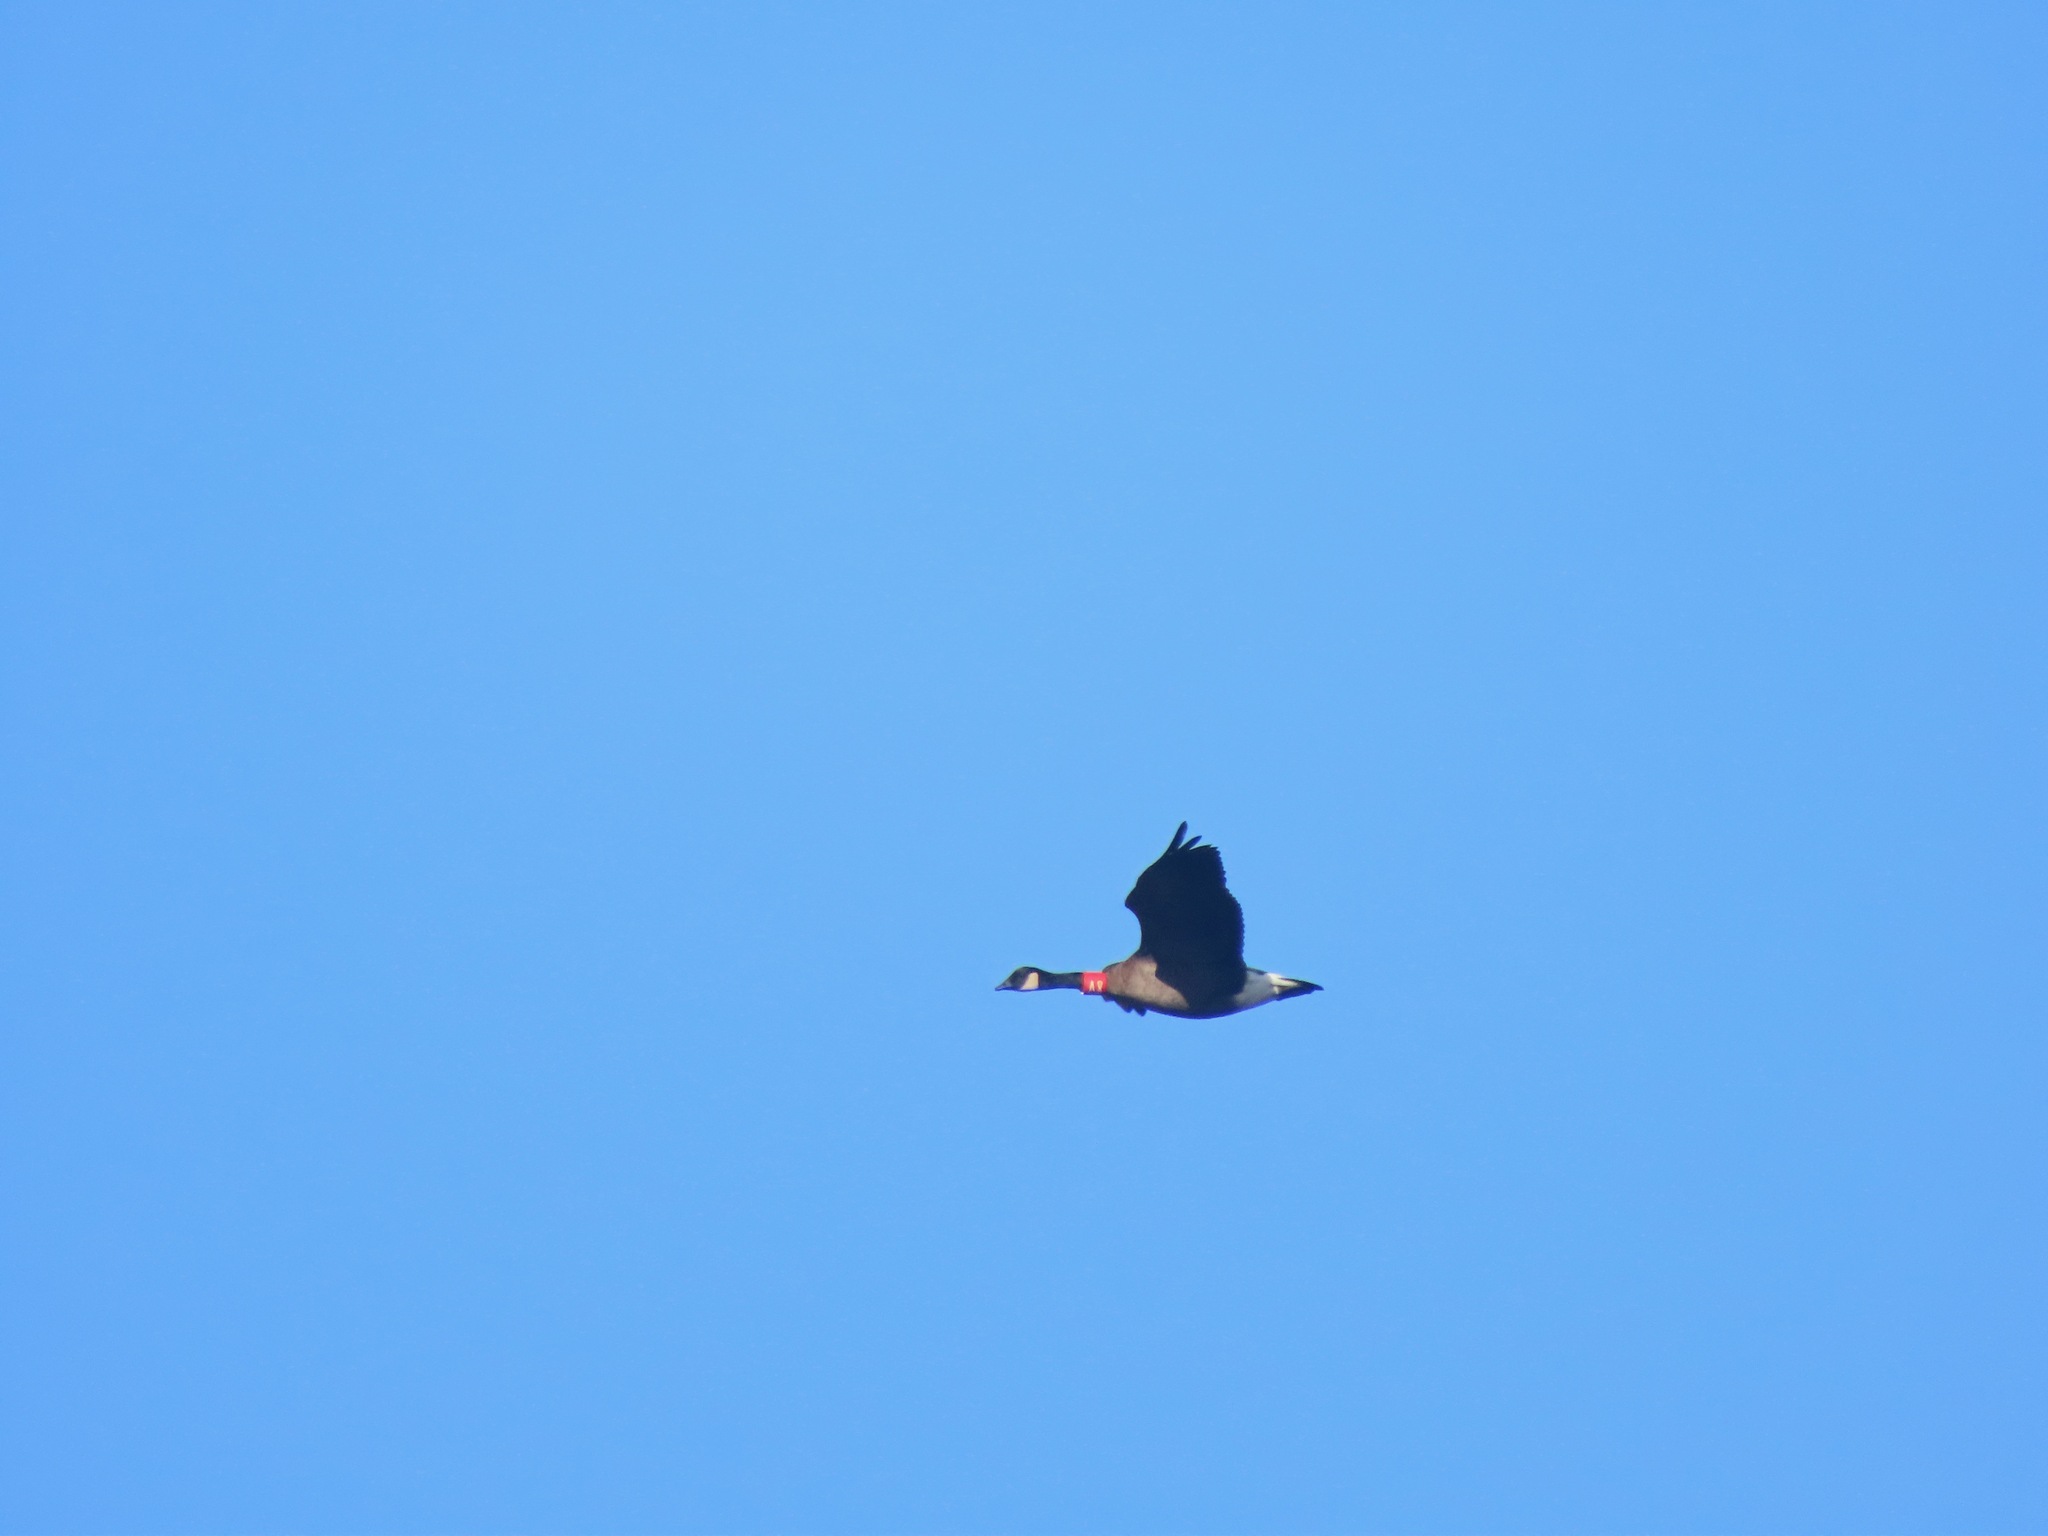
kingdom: Animalia
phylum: Chordata
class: Aves
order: Anseriformes
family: Anatidae
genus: Branta
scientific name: Branta canadensis
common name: Canada goose
